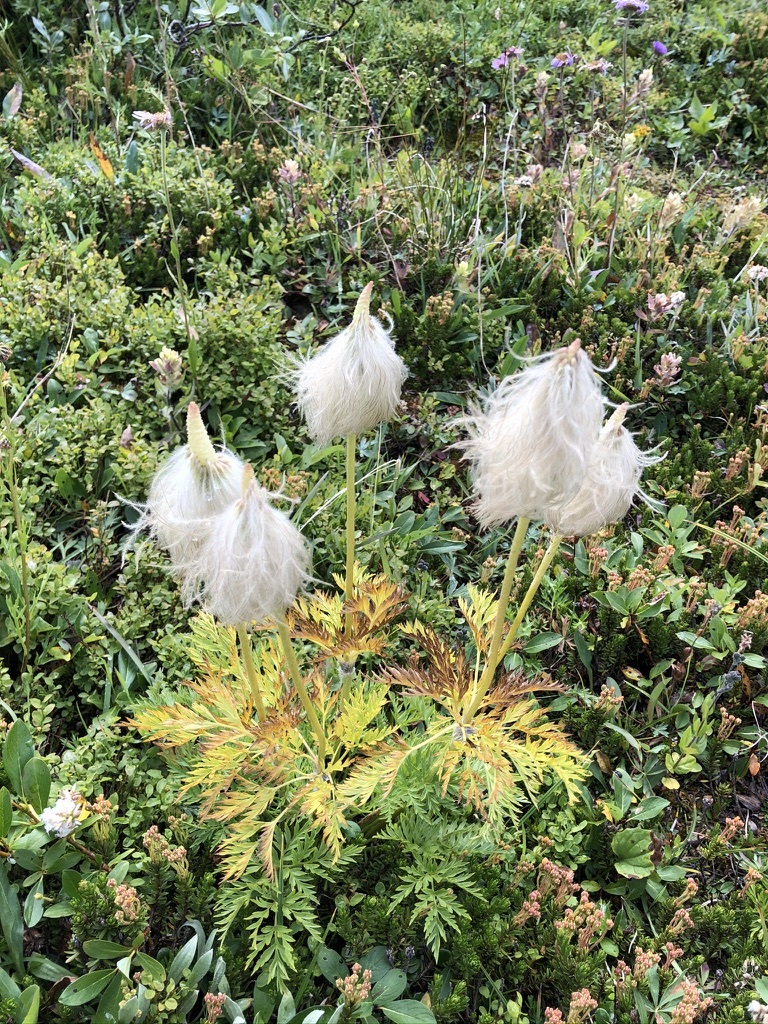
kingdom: Plantae
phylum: Tracheophyta
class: Magnoliopsida
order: Ranunculales
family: Ranunculaceae
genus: Pulsatilla
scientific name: Pulsatilla occidentalis
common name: Mountain pasqueflower
